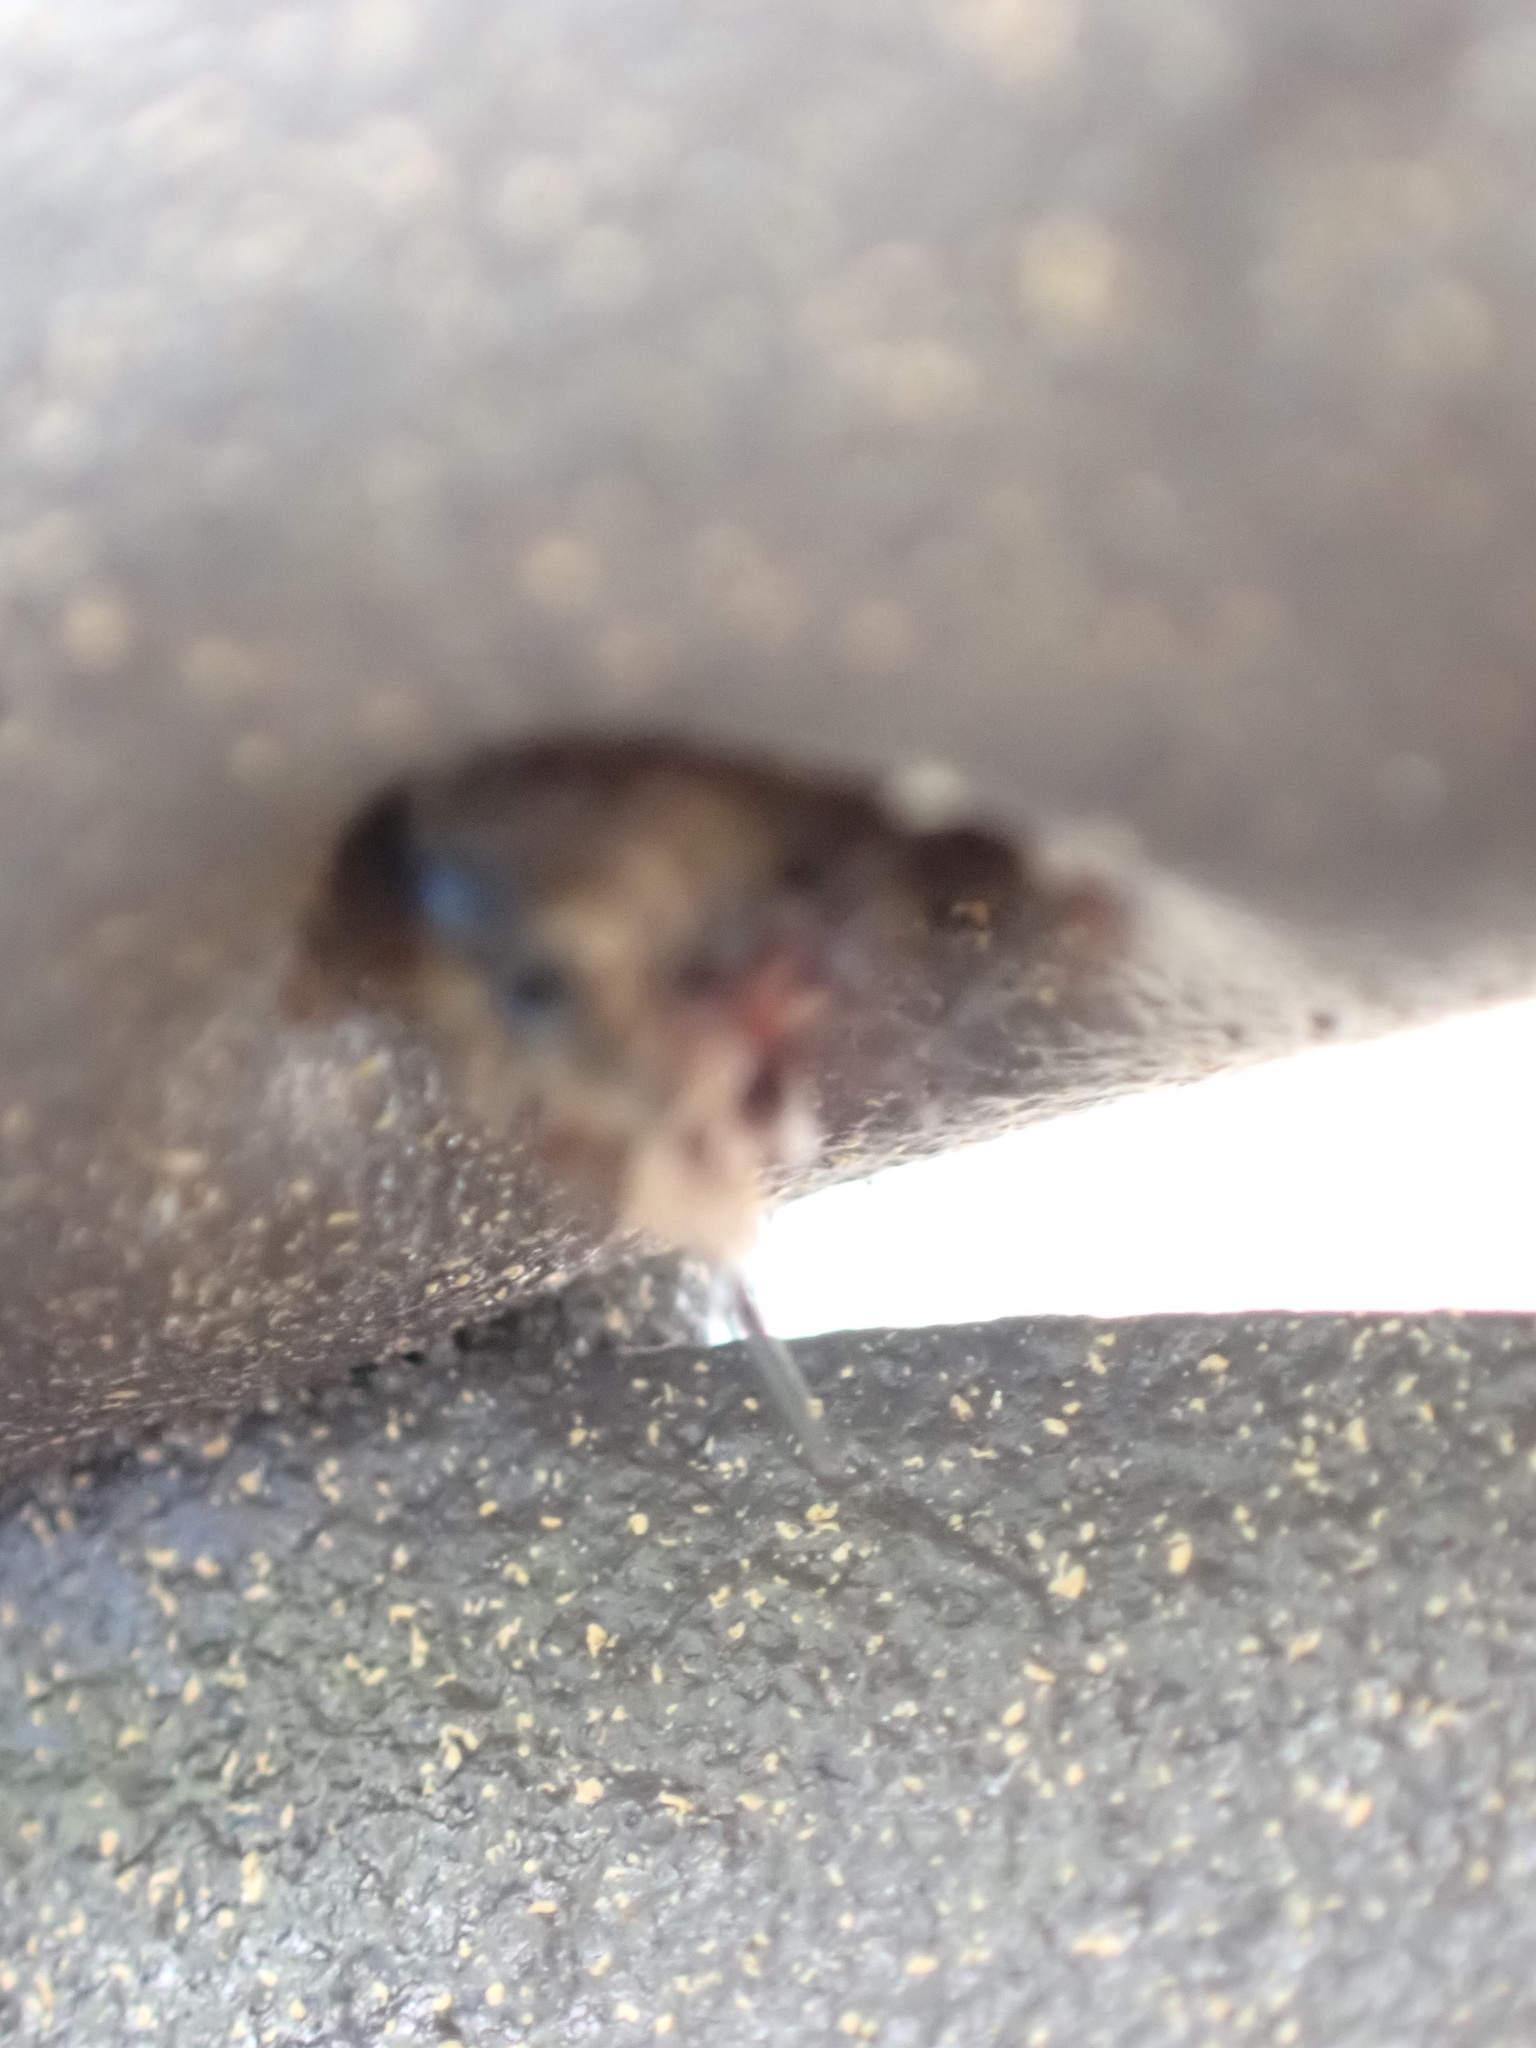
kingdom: Animalia
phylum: Arthropoda
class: Insecta
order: Hymenoptera
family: Megachilidae
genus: Osmia
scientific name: Osmia taurus
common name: Taurus mason bee
